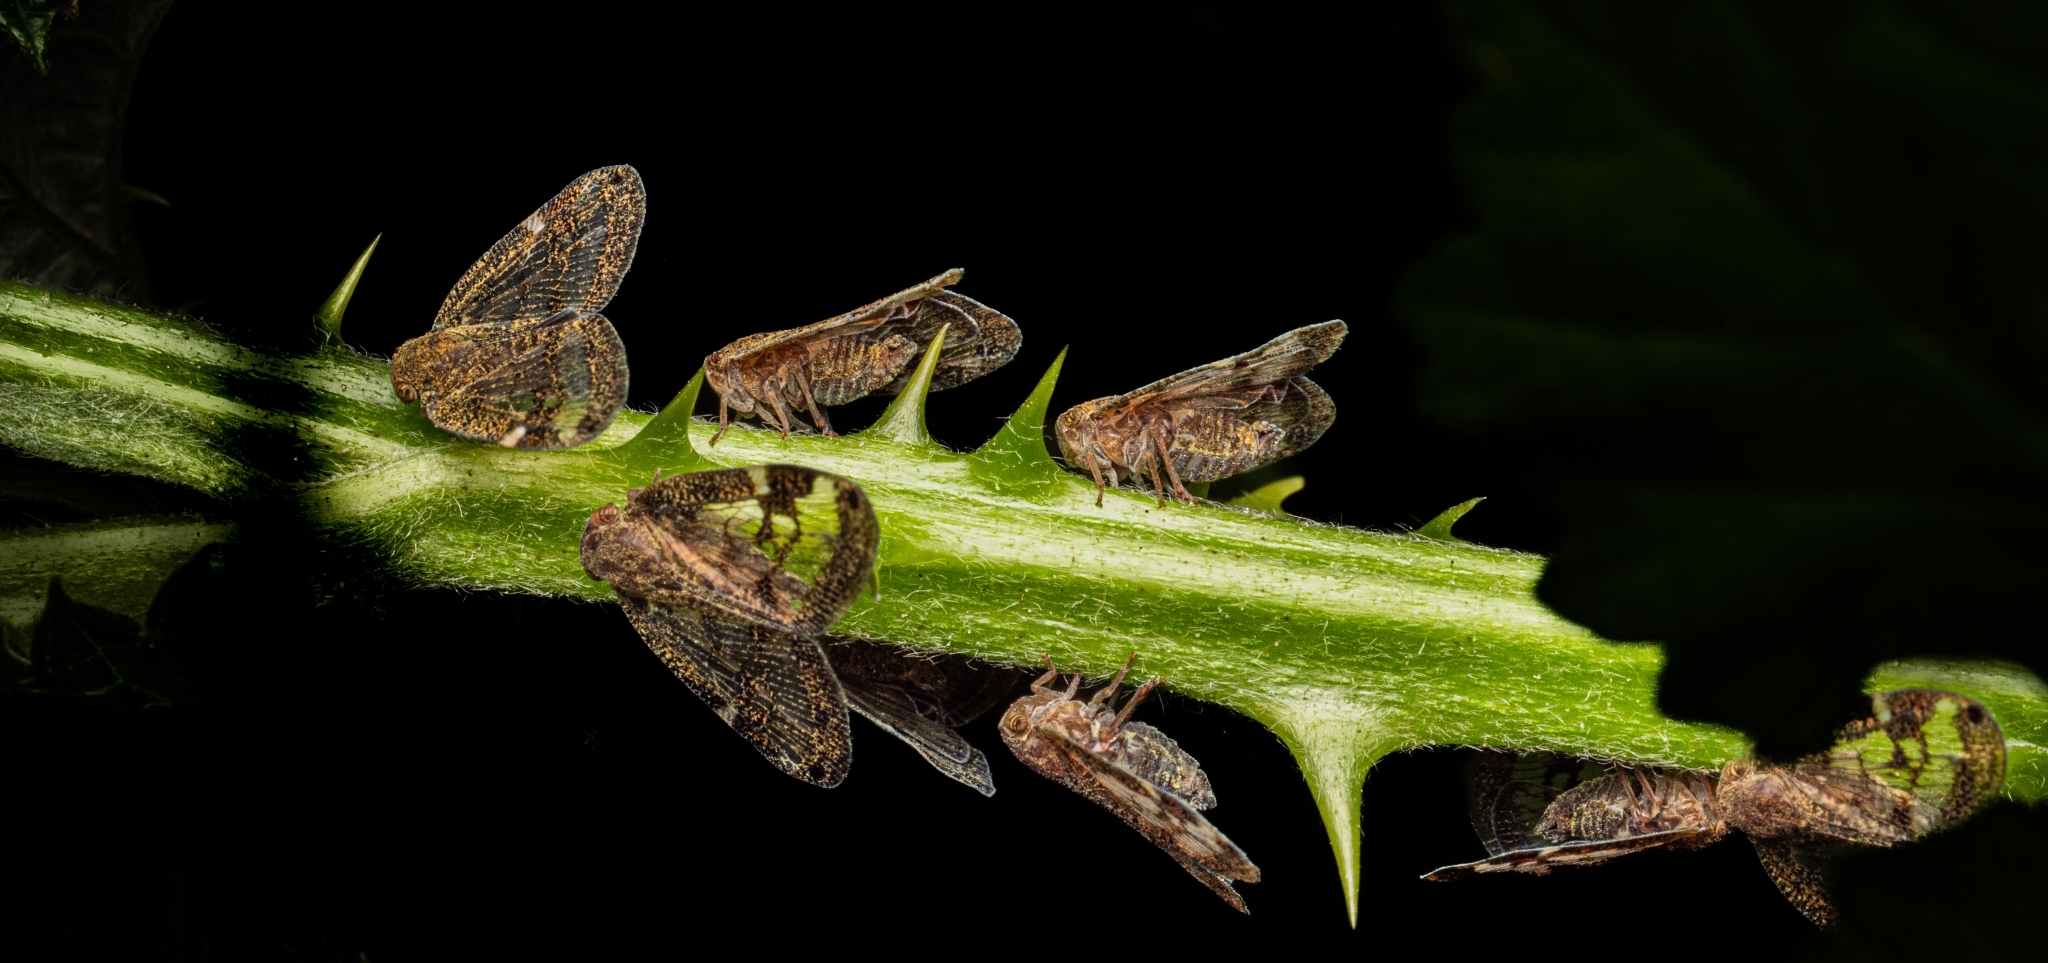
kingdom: Animalia
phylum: Arthropoda
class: Insecta
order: Hemiptera
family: Ricaniidae
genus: Scolypopa
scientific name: Scolypopa australis
